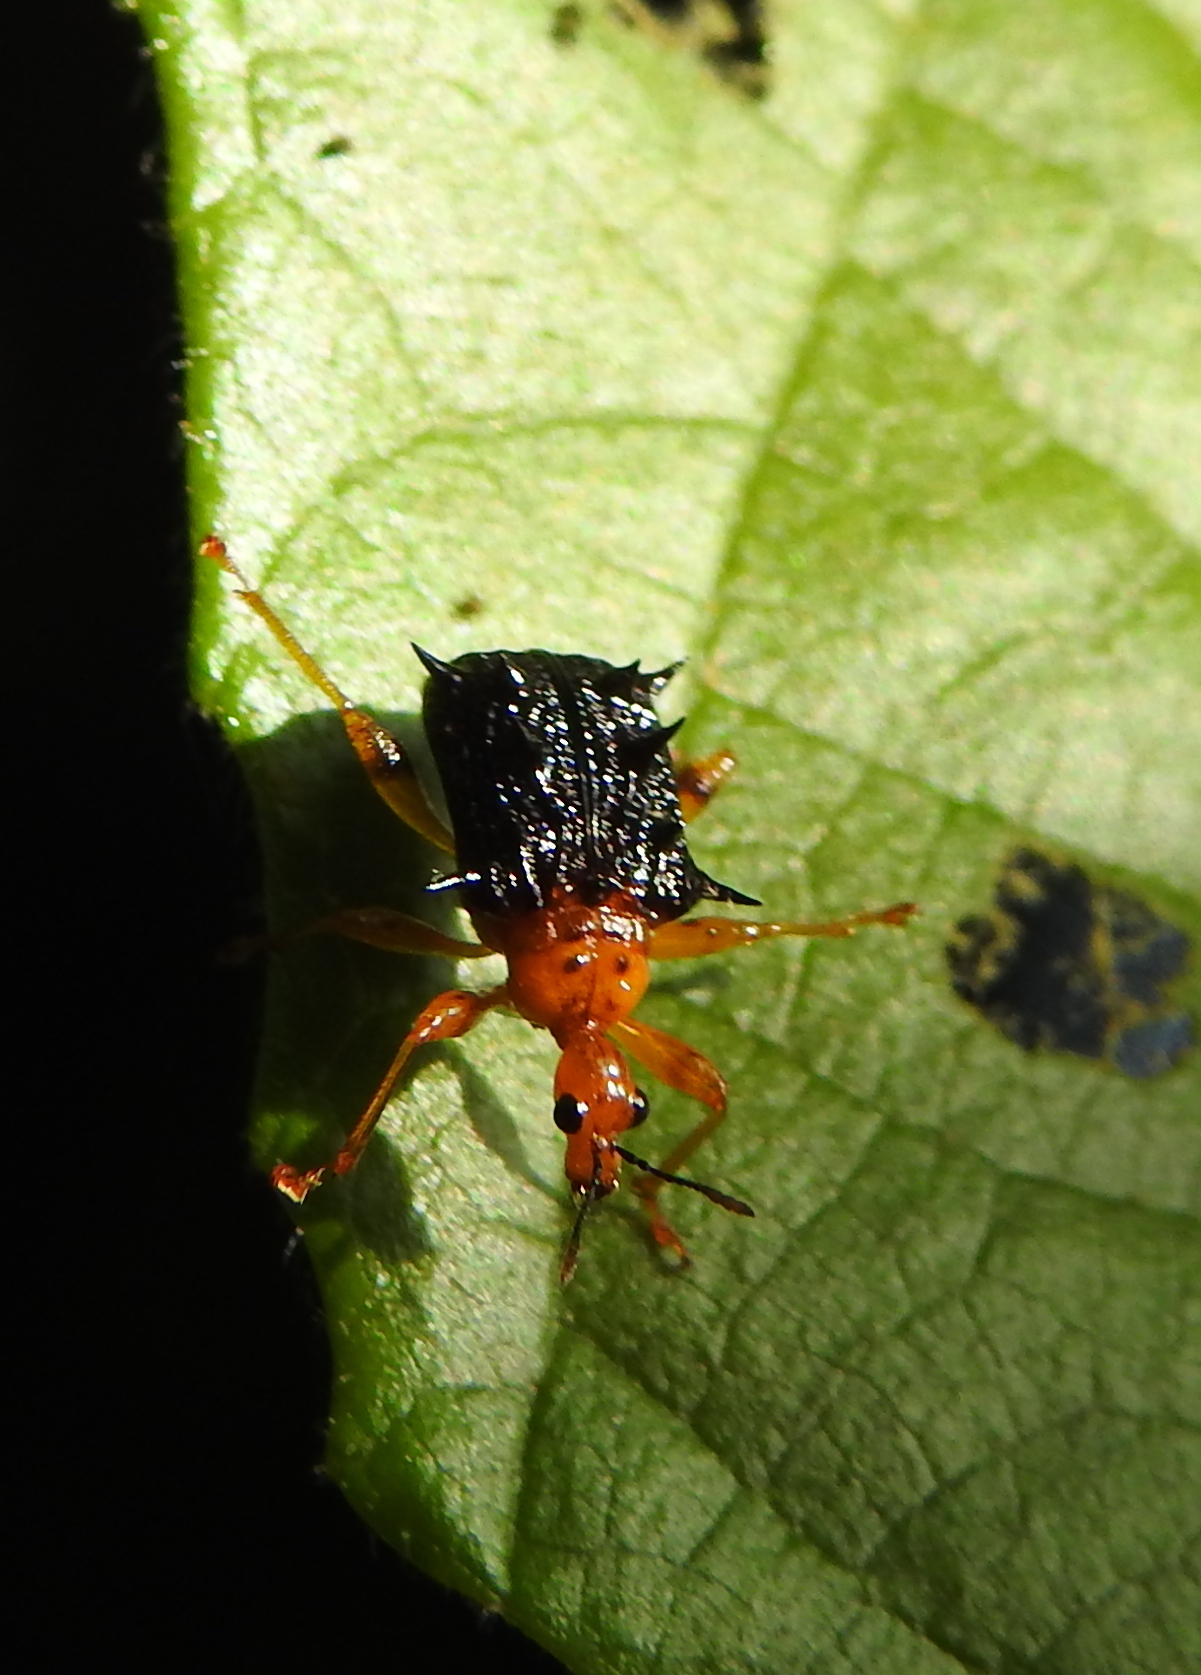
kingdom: Animalia
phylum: Arthropoda
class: Insecta
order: Coleoptera
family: Attelabidae
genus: Hoplapoderus
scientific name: Hoplapoderus hystrix
